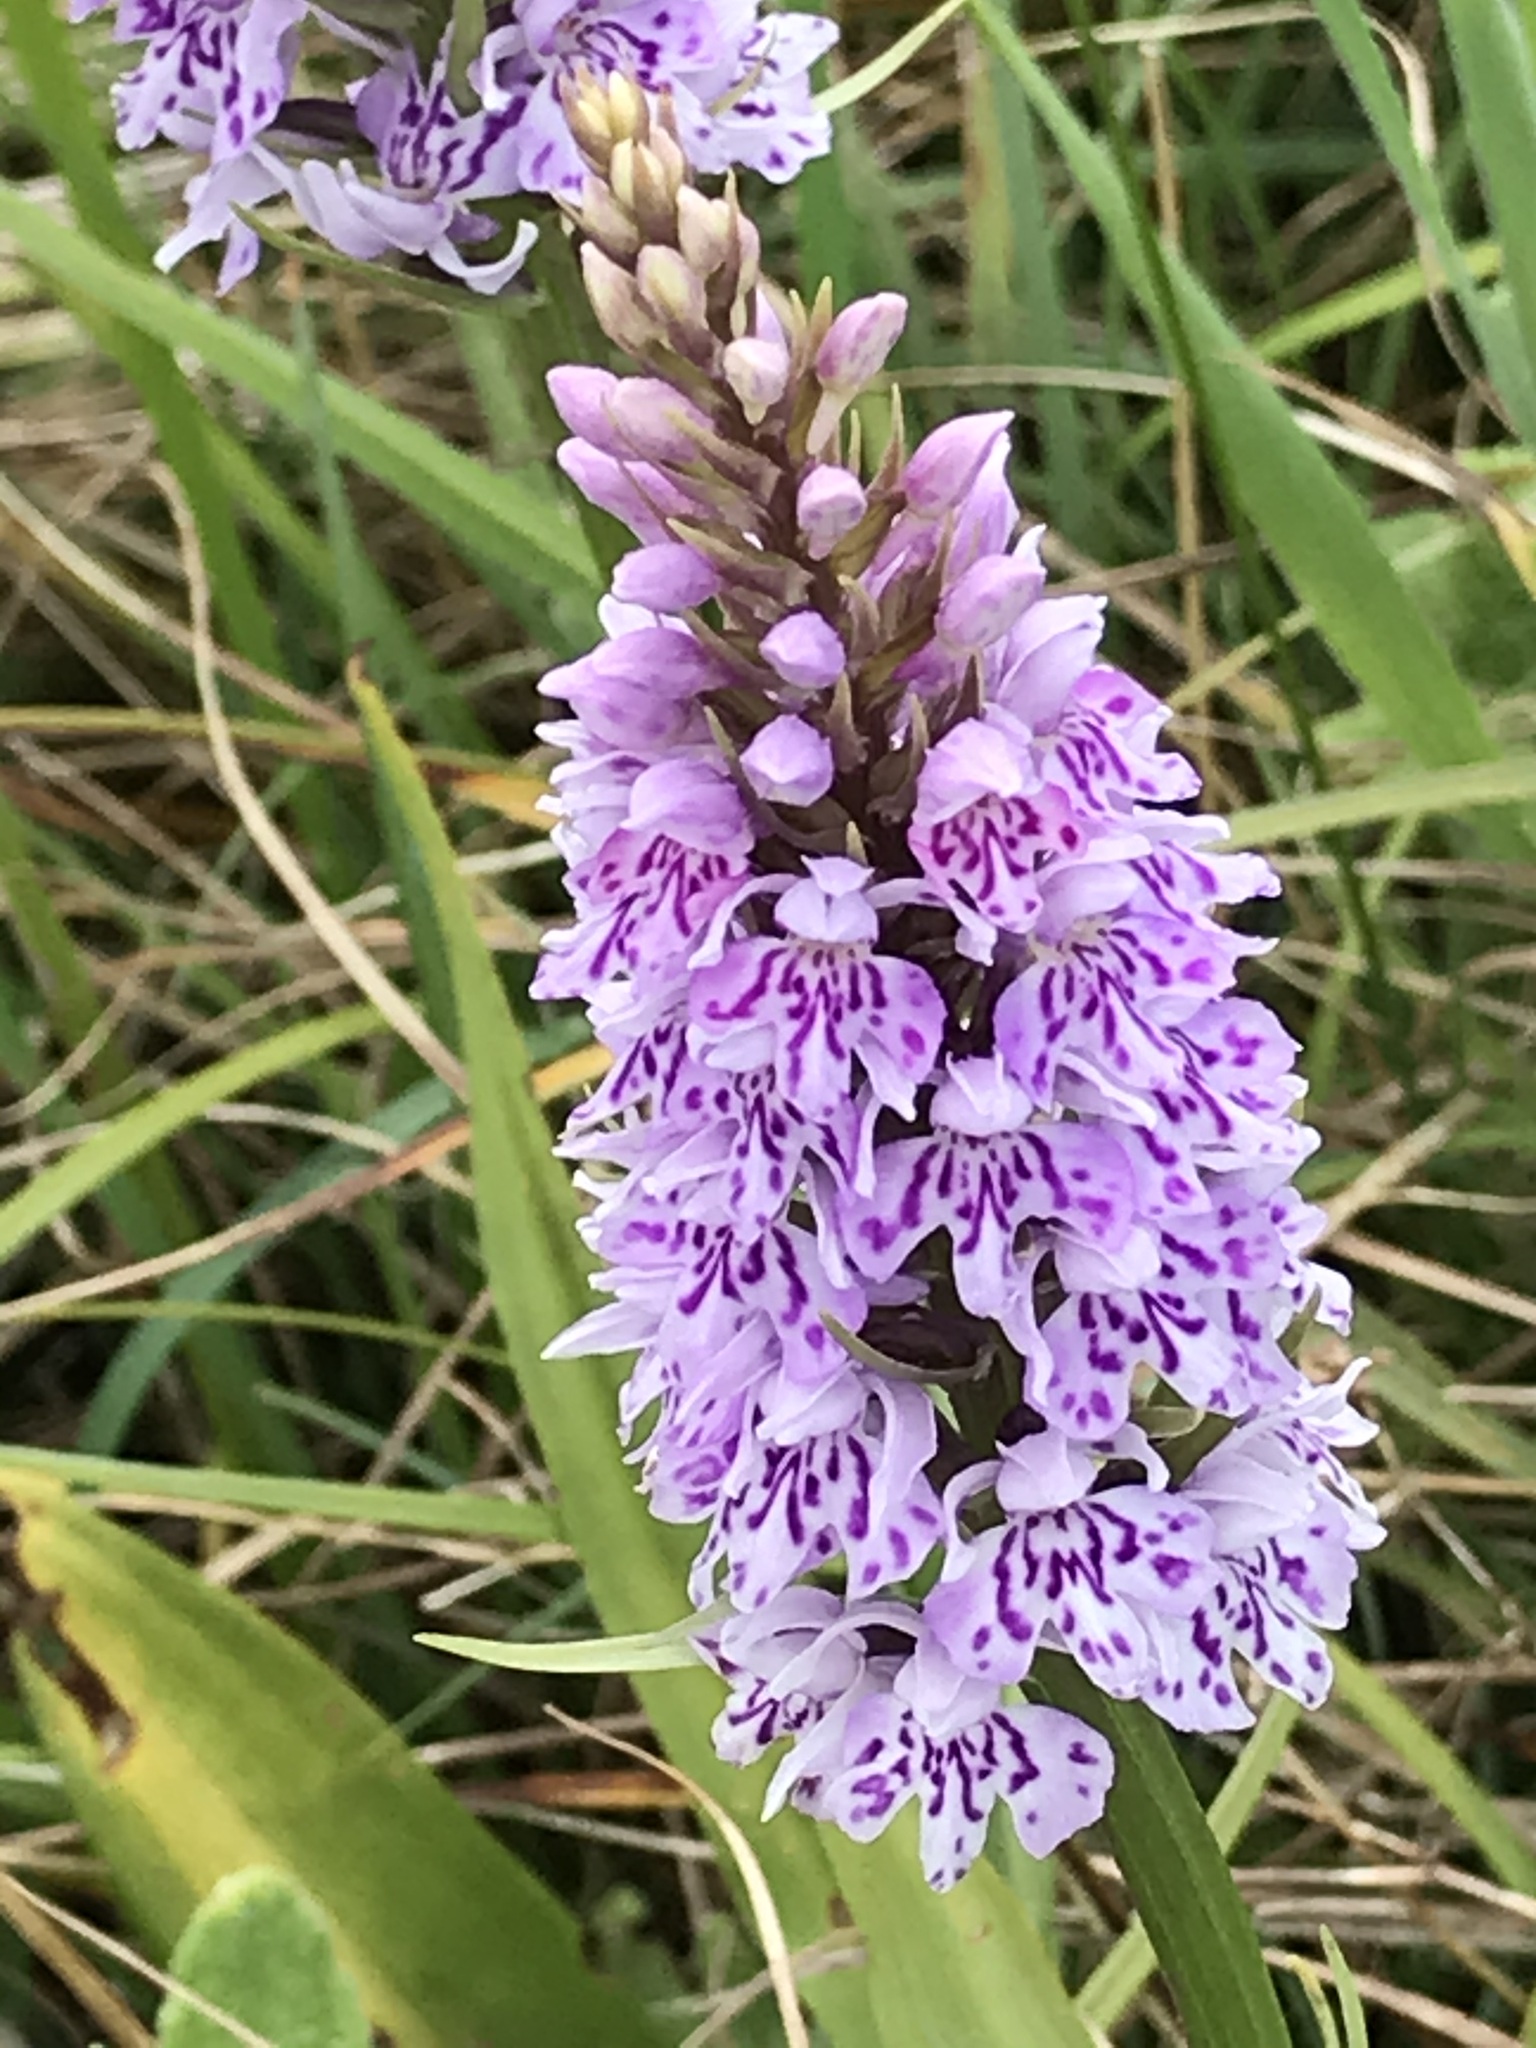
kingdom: Plantae
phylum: Tracheophyta
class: Liliopsida
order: Asparagales
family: Orchidaceae
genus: Dactylorhiza
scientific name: Dactylorhiza maculata
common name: Heath spotted-orchid
